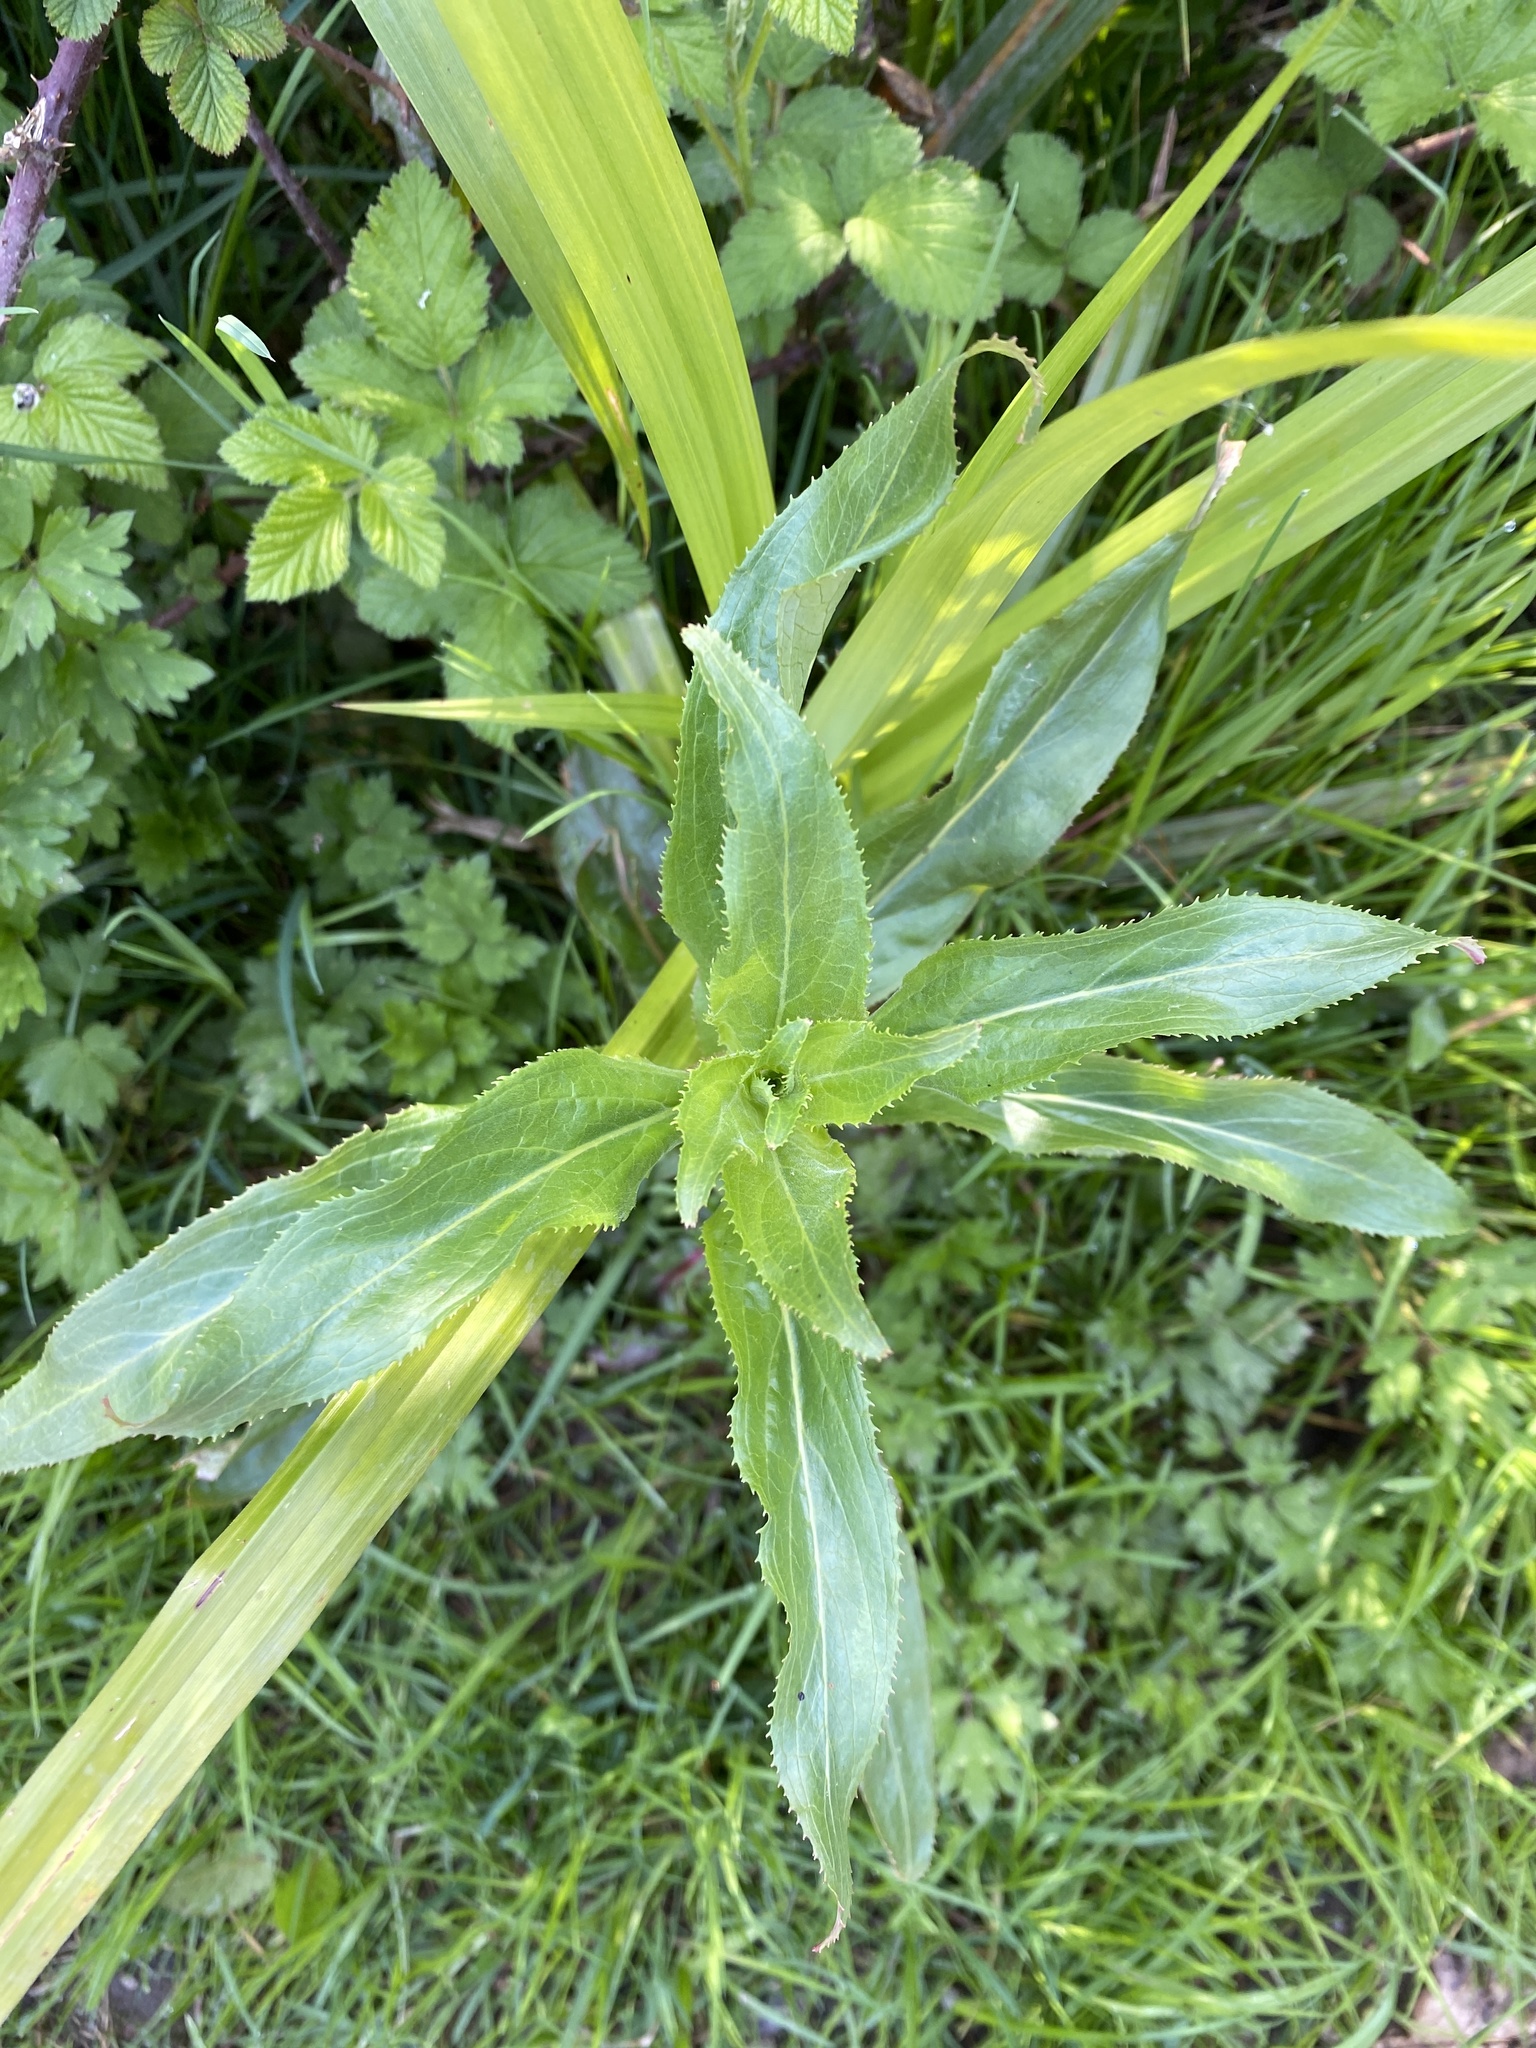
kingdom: Plantae
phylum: Tracheophyta
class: Magnoliopsida
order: Myrtales
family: Onagraceae
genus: Epilobium
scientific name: Epilobium hirsutum
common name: Great willowherb
